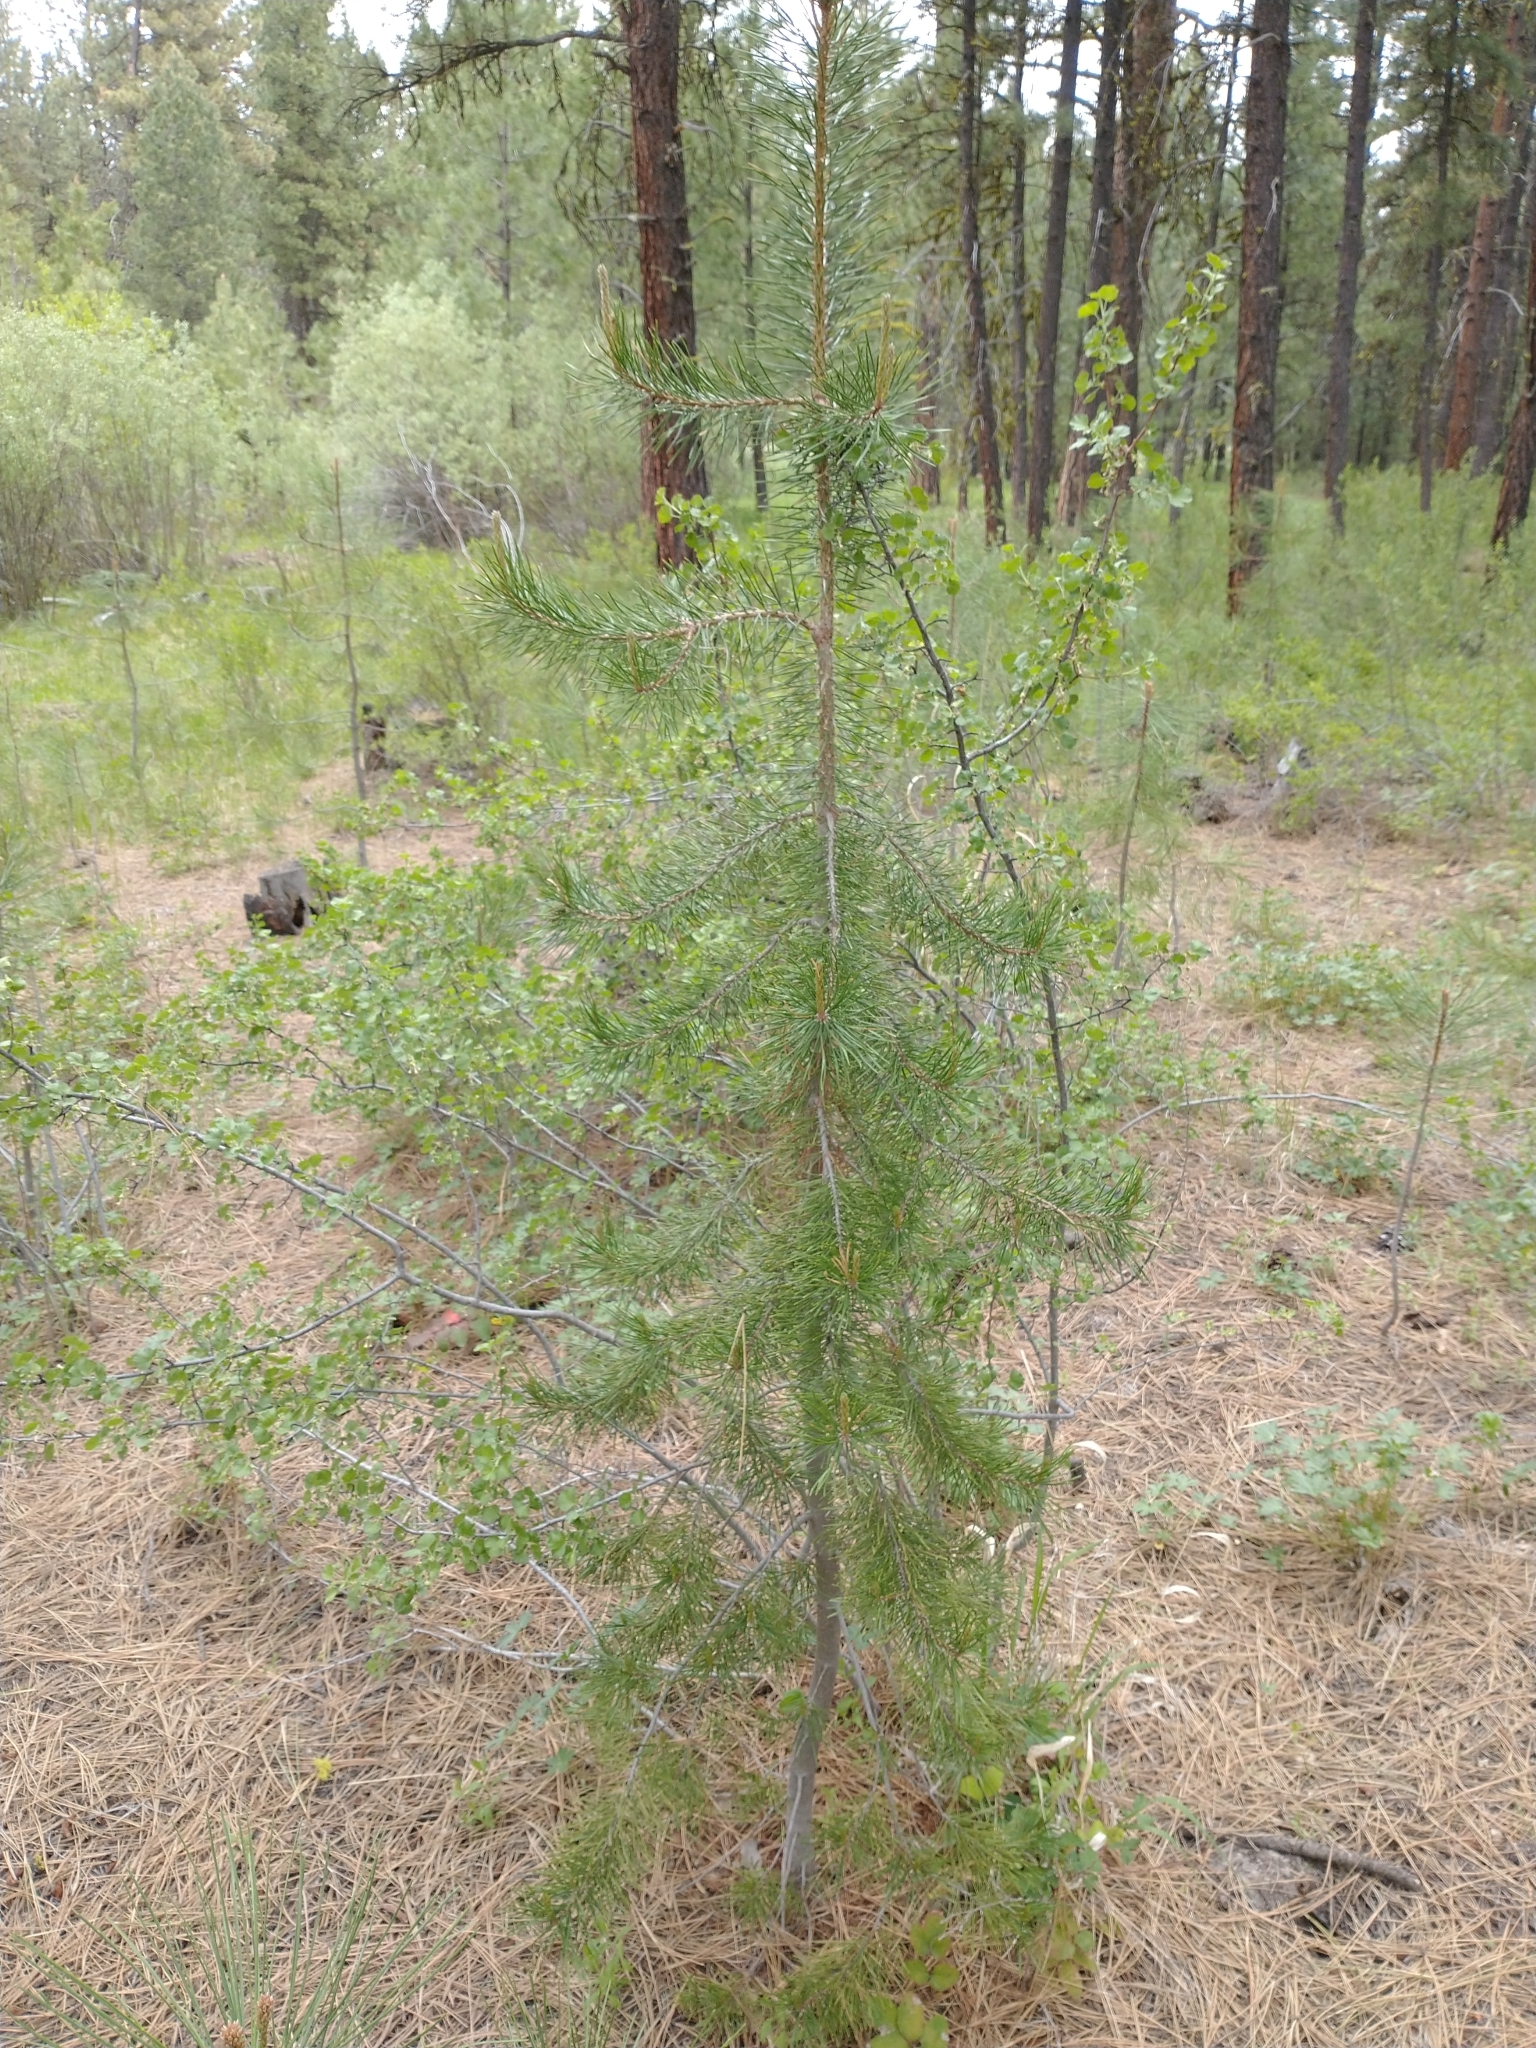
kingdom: Plantae
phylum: Tracheophyta
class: Pinopsida
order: Pinales
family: Pinaceae
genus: Pinus
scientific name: Pinus contorta
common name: Lodgepole pine
